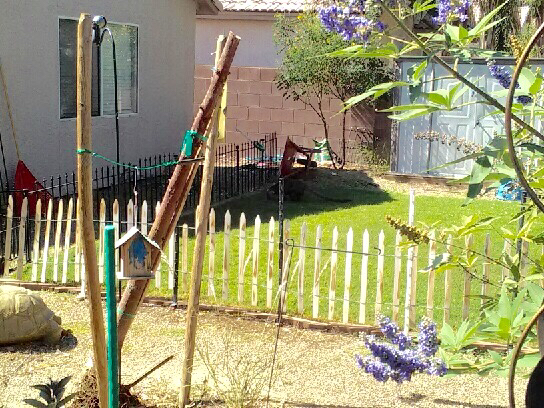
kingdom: Animalia
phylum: Chordata
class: Mammalia
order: Carnivora
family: Procyonidae
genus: Nasua
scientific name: Nasua narica
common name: White-nosed coati
